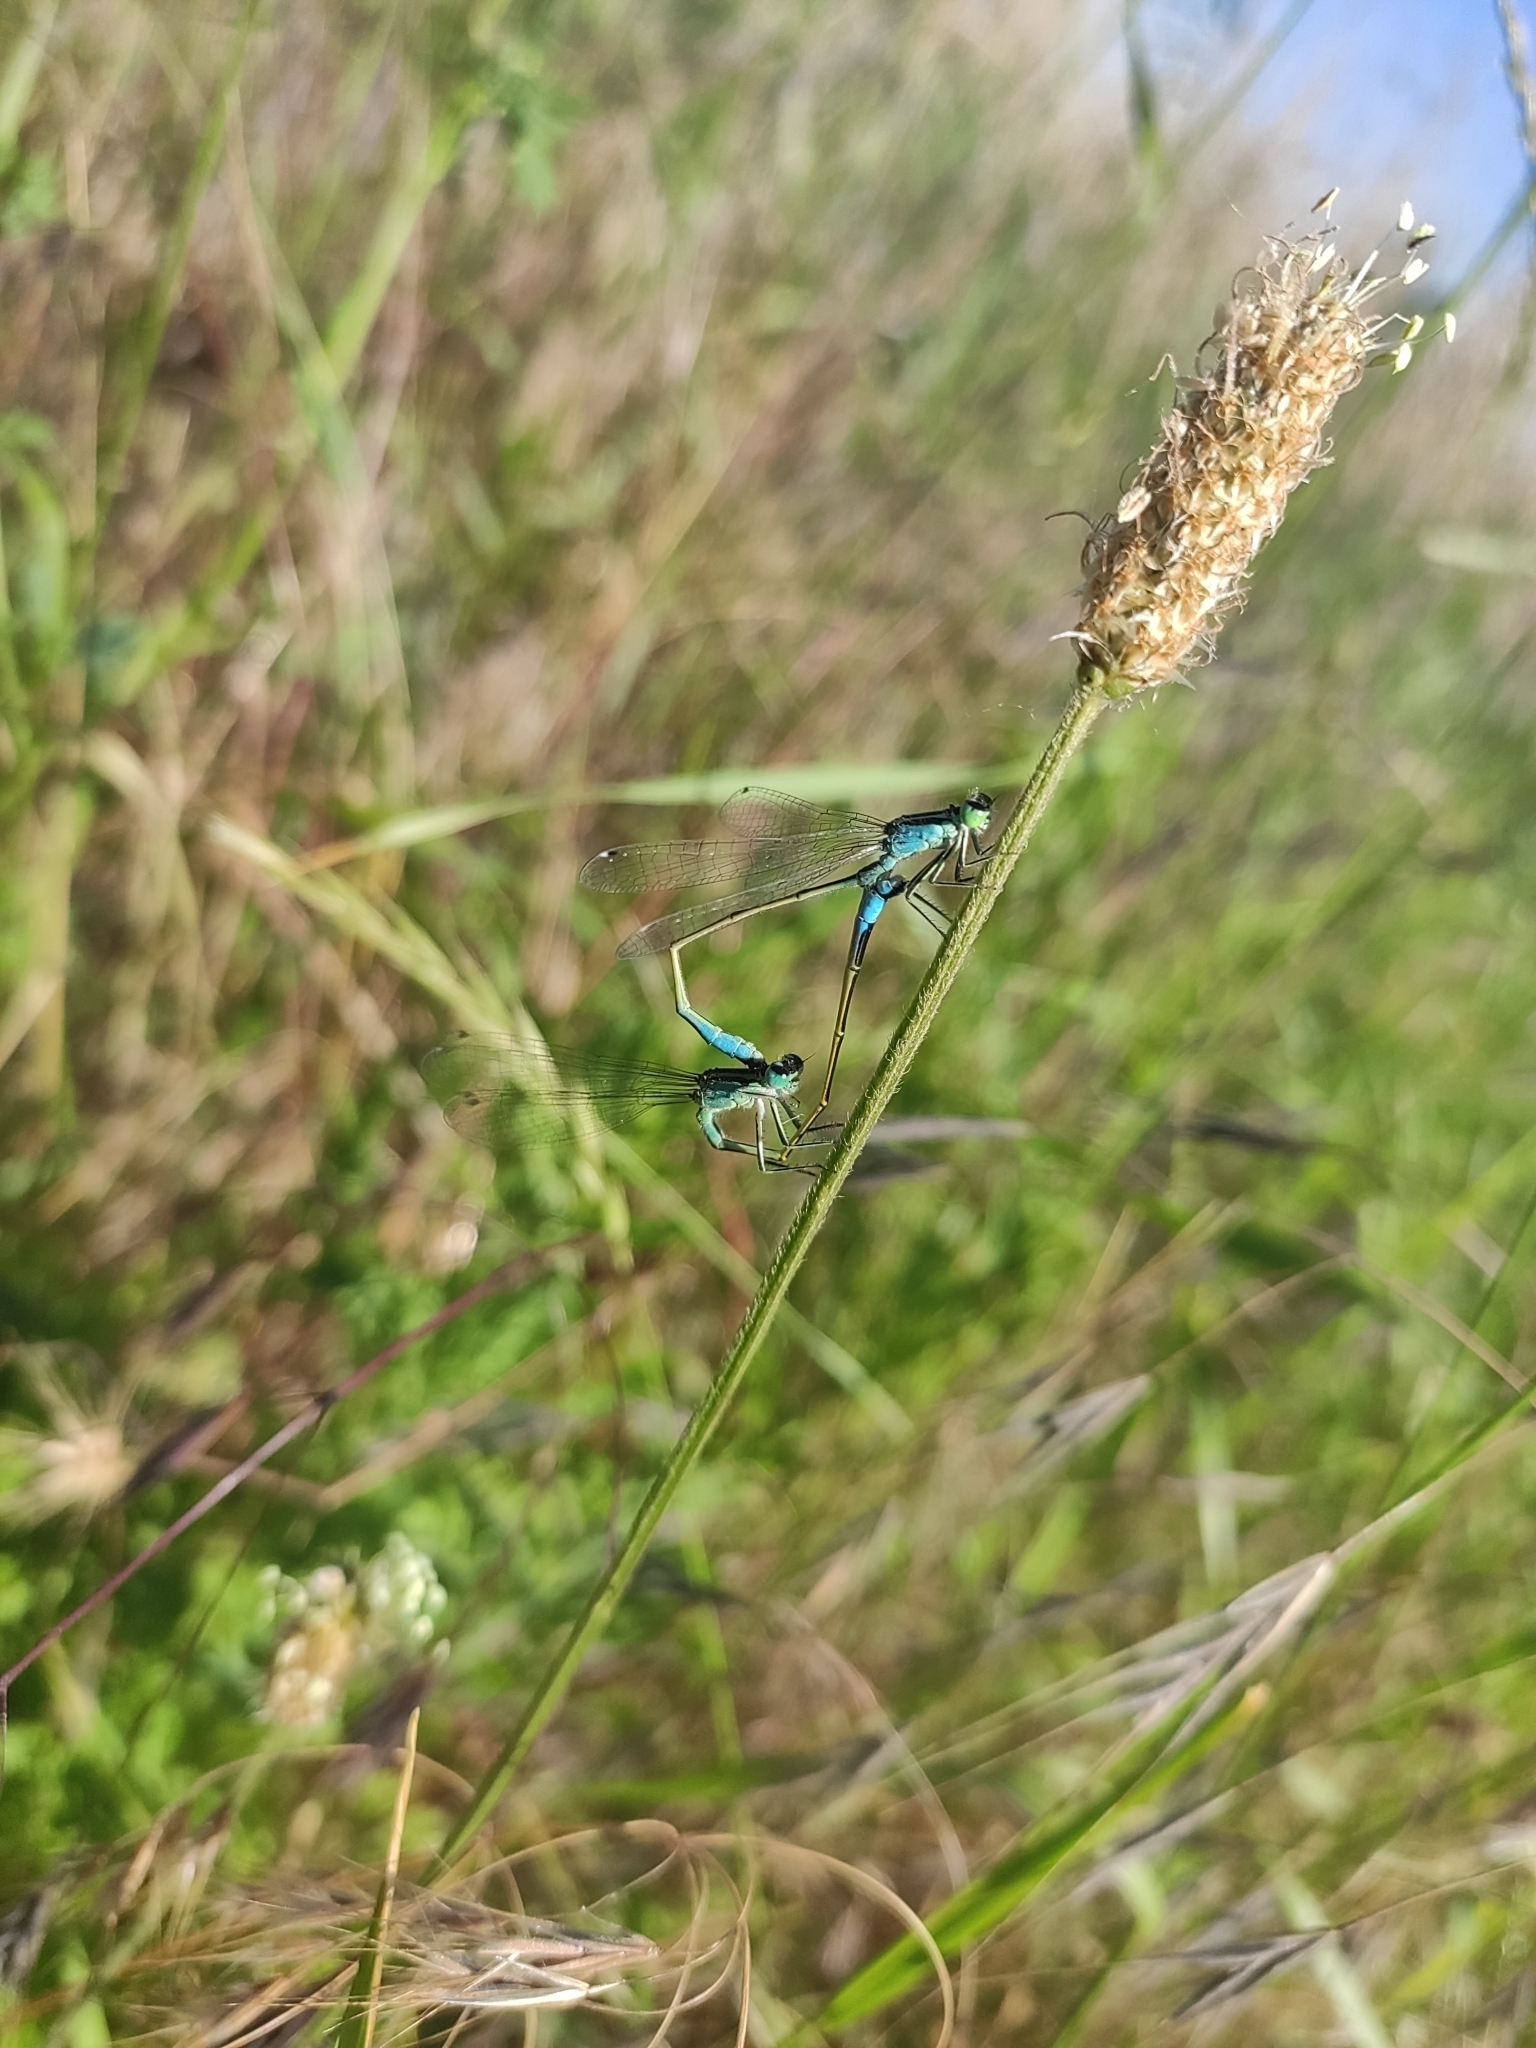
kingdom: Animalia
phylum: Arthropoda
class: Insecta
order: Odonata
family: Coenagrionidae
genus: Ischnura
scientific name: Ischnura elegans
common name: Blue-tailed damselfly
